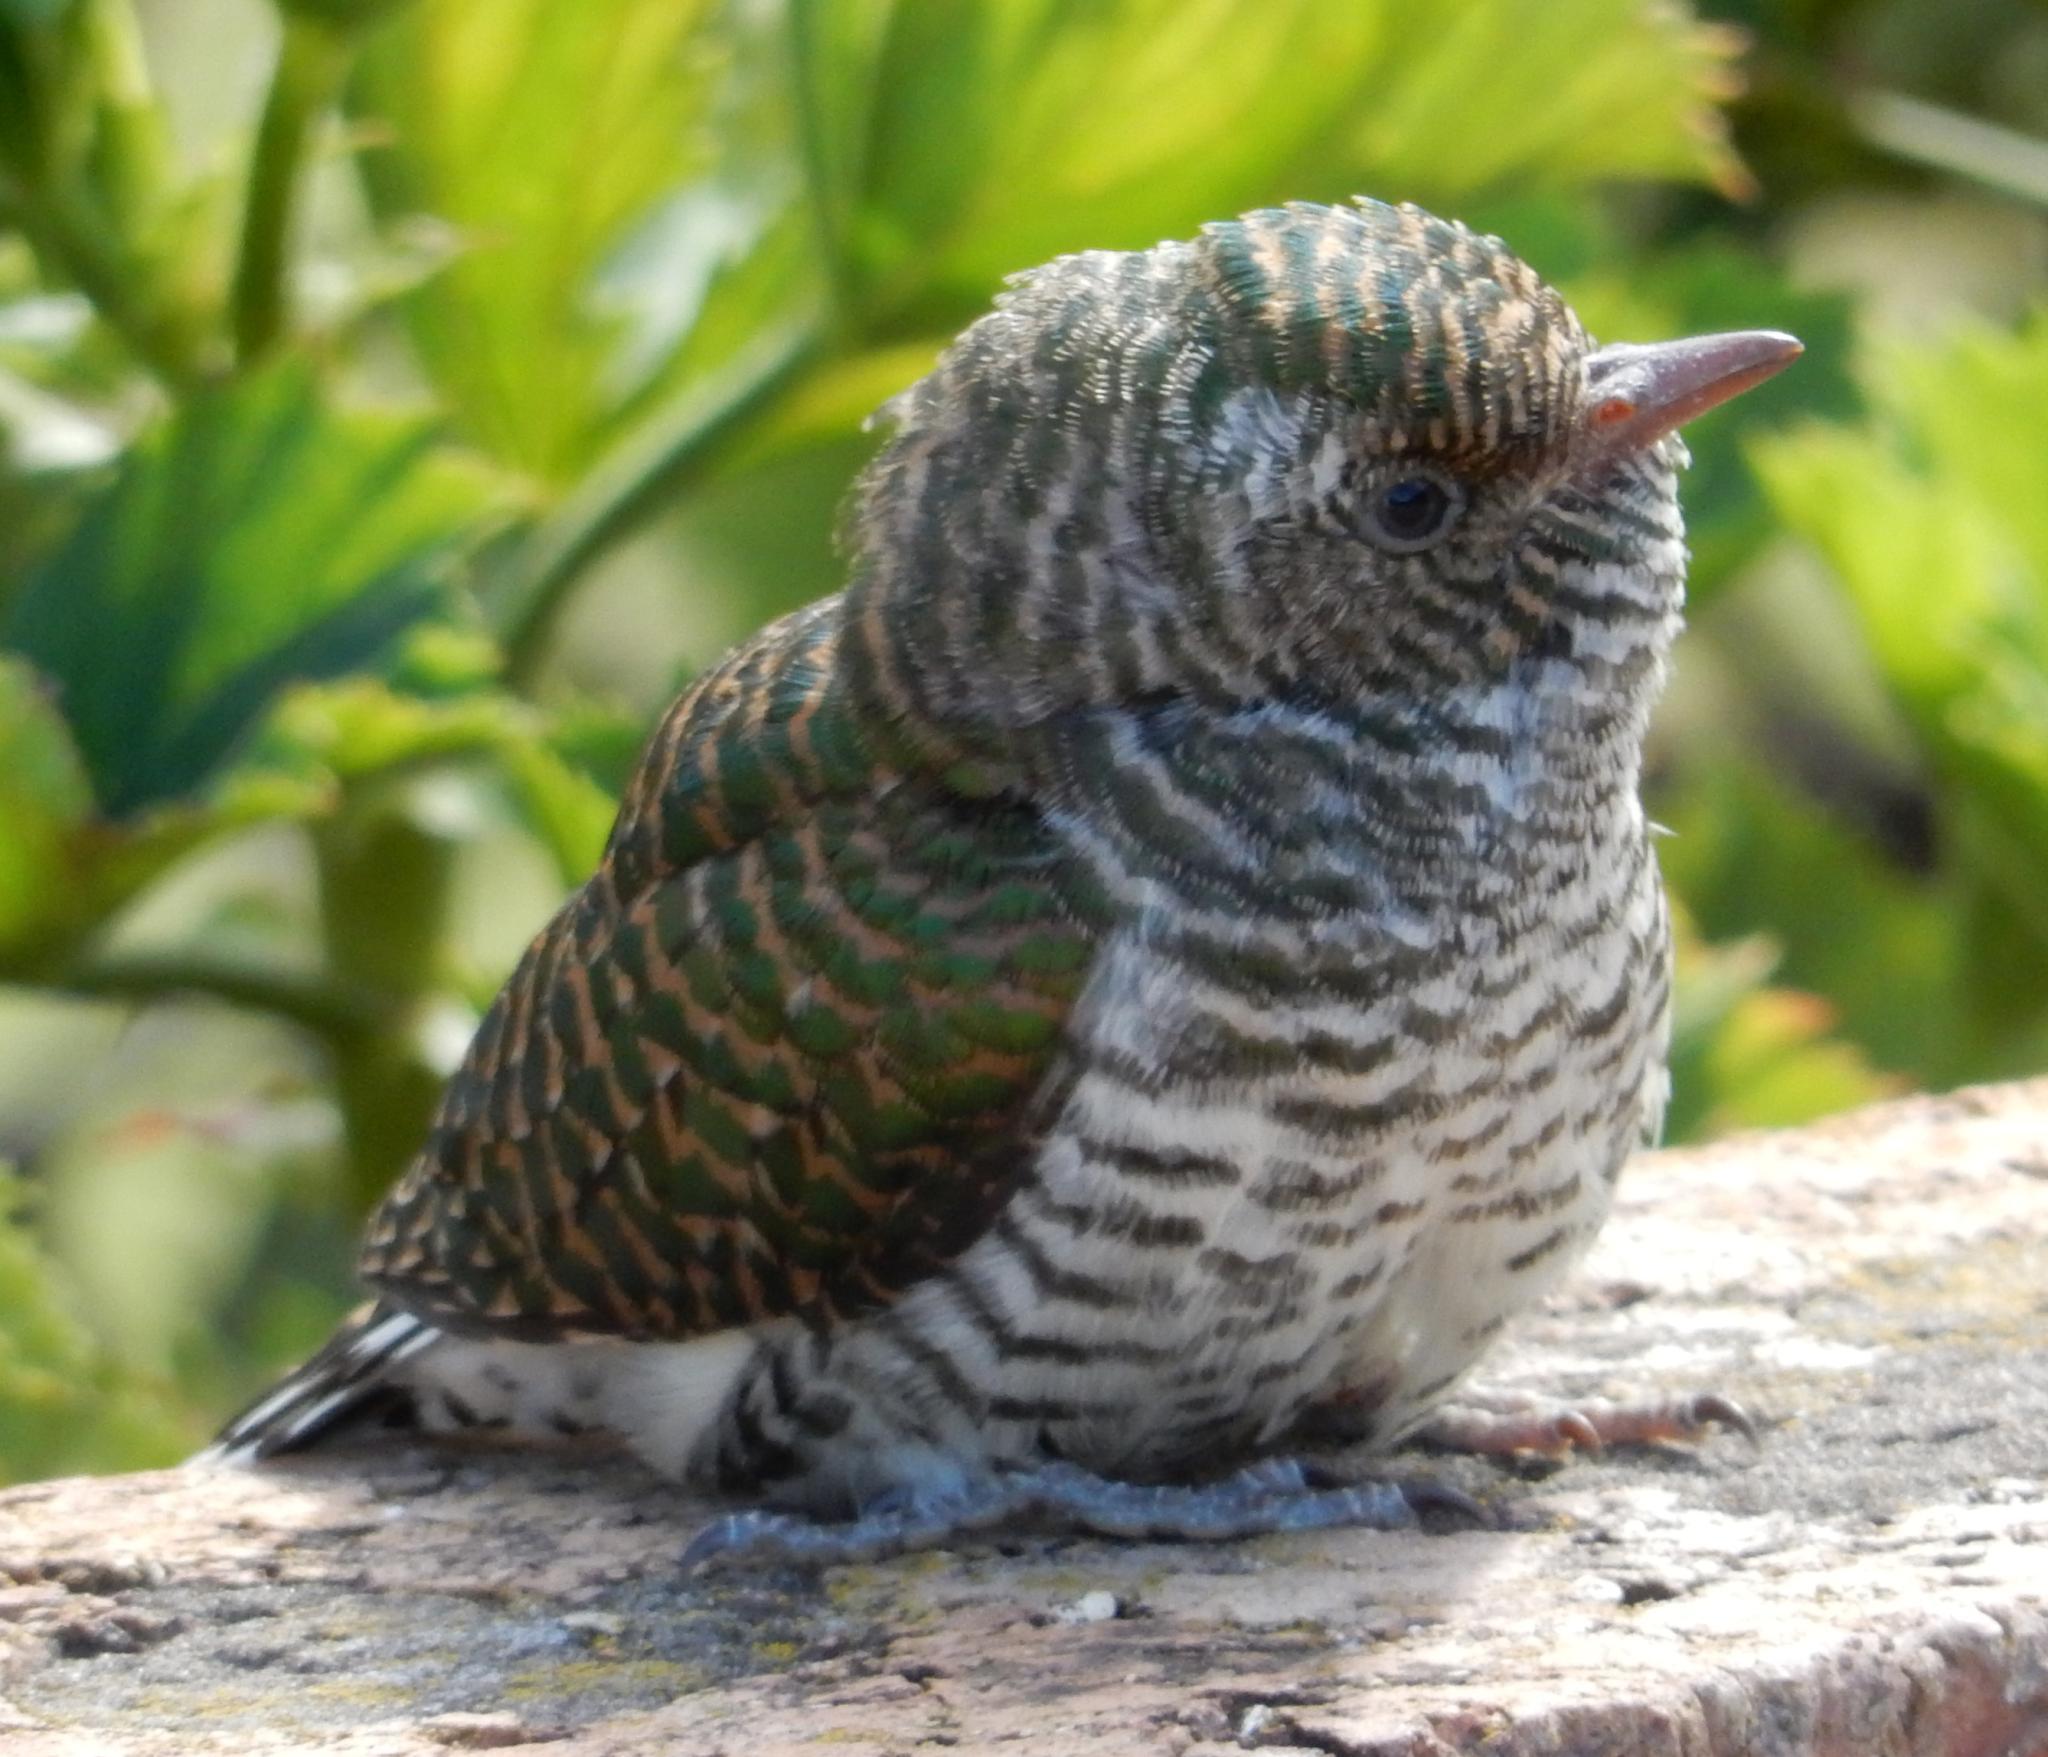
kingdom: Animalia
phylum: Chordata
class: Aves
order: Cuculiformes
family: Cuculidae
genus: Chrysococcyx
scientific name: Chrysococcyx klaas
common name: Klaas's cuckoo
